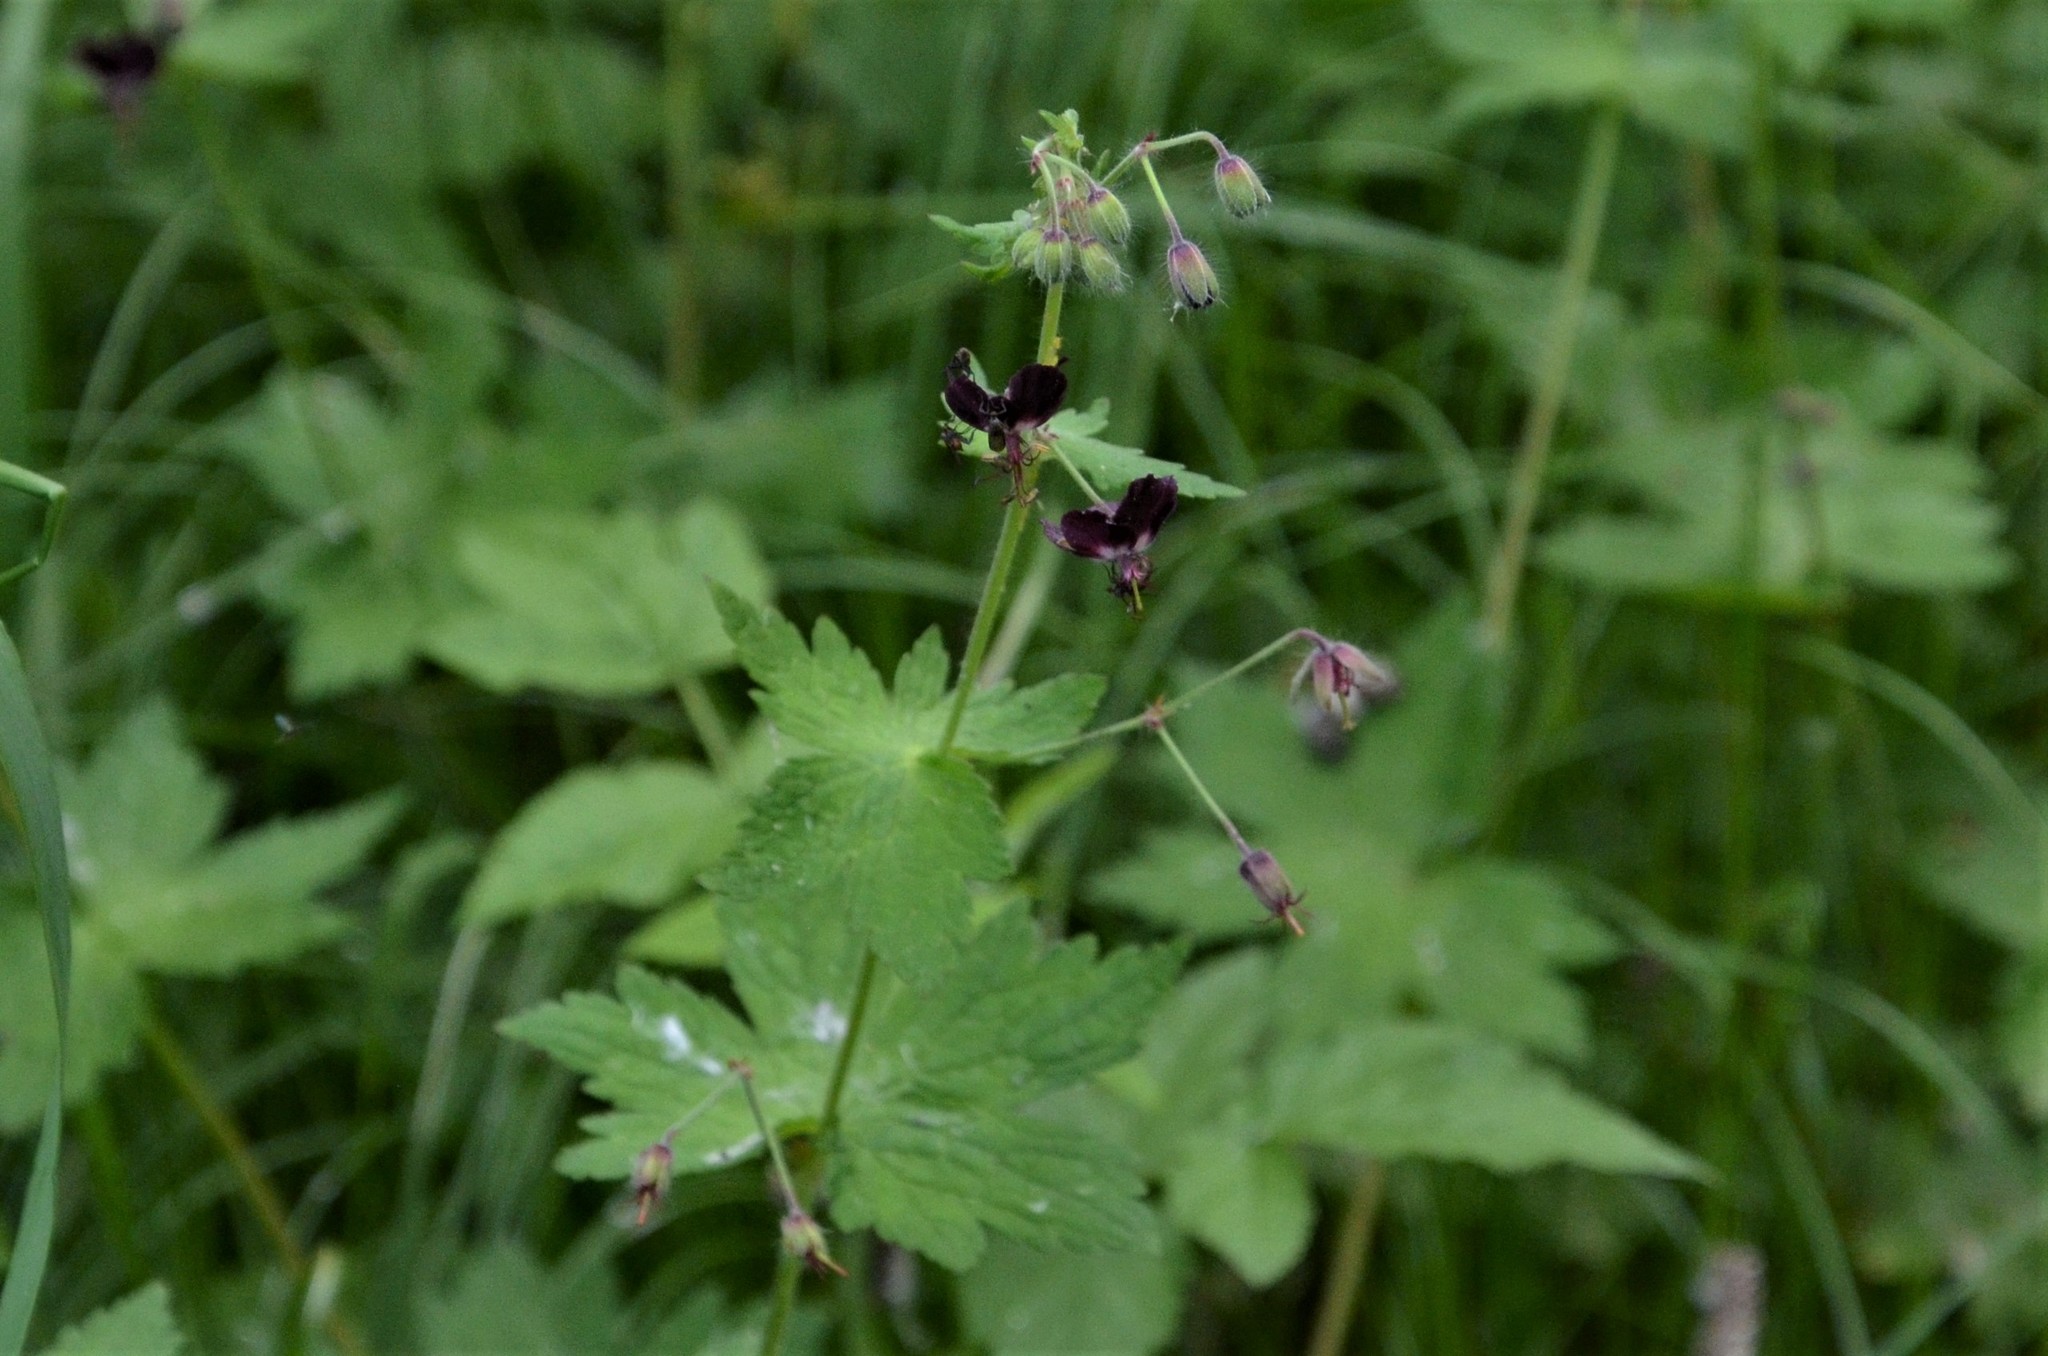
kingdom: Plantae
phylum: Tracheophyta
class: Magnoliopsida
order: Geraniales
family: Geraniaceae
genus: Geranium
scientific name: Geranium phaeum
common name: Dusky crane's-bill
